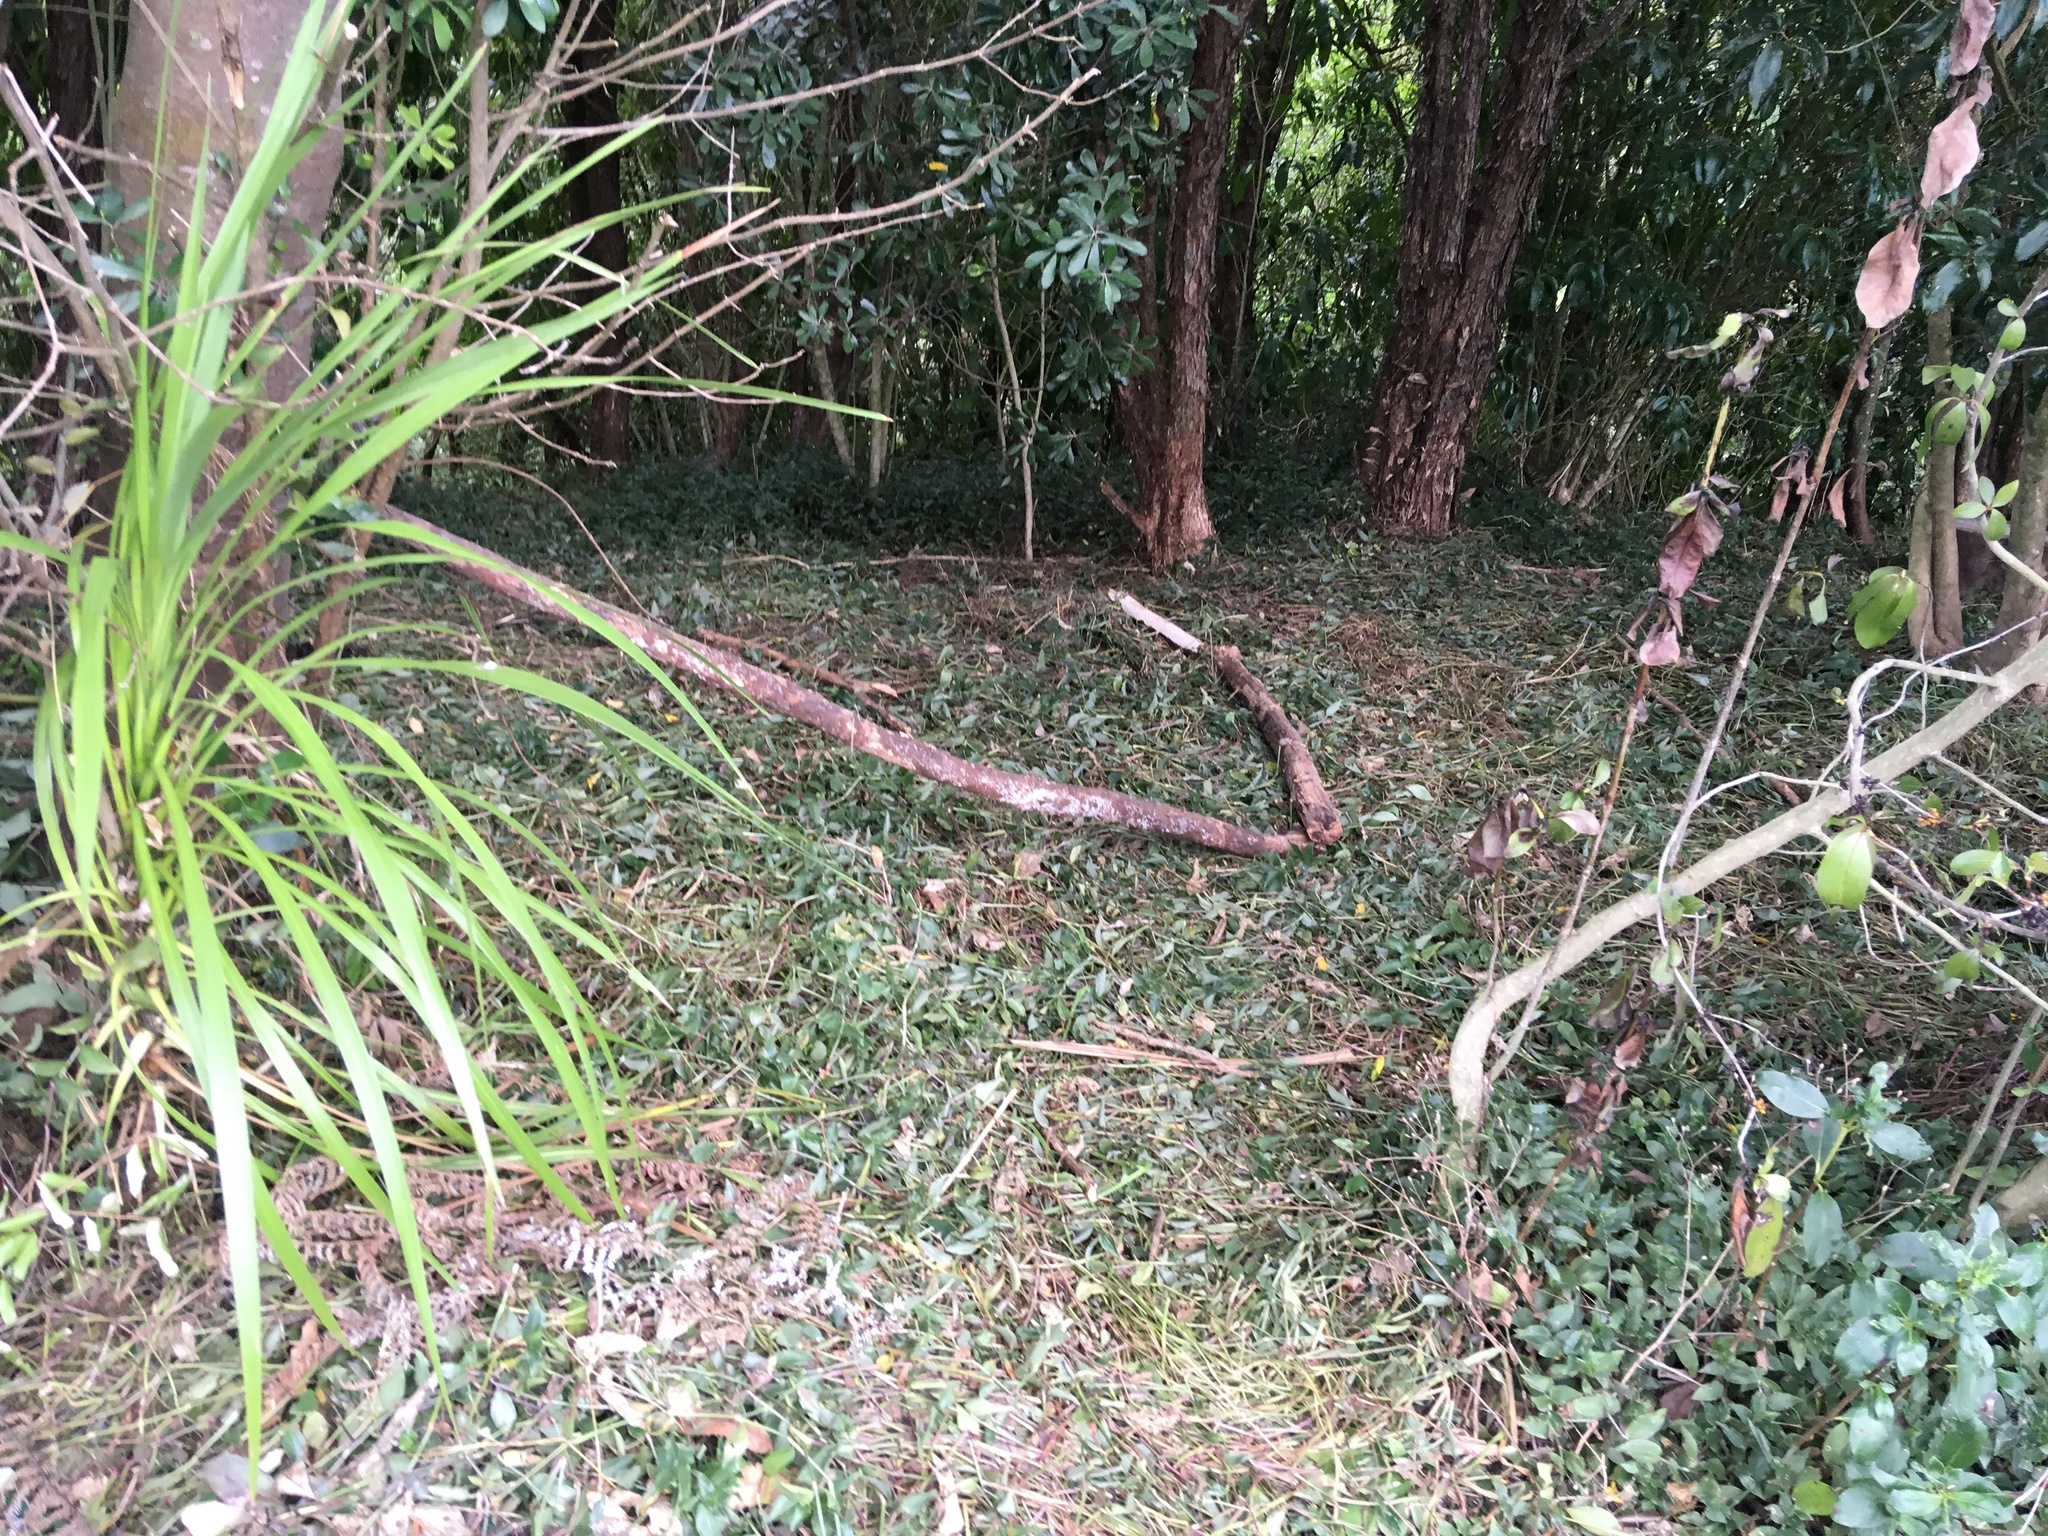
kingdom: Plantae
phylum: Tracheophyta
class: Liliopsida
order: Asparagales
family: Asparagaceae
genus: Cordyline
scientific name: Cordyline australis
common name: Cabbage-palm
